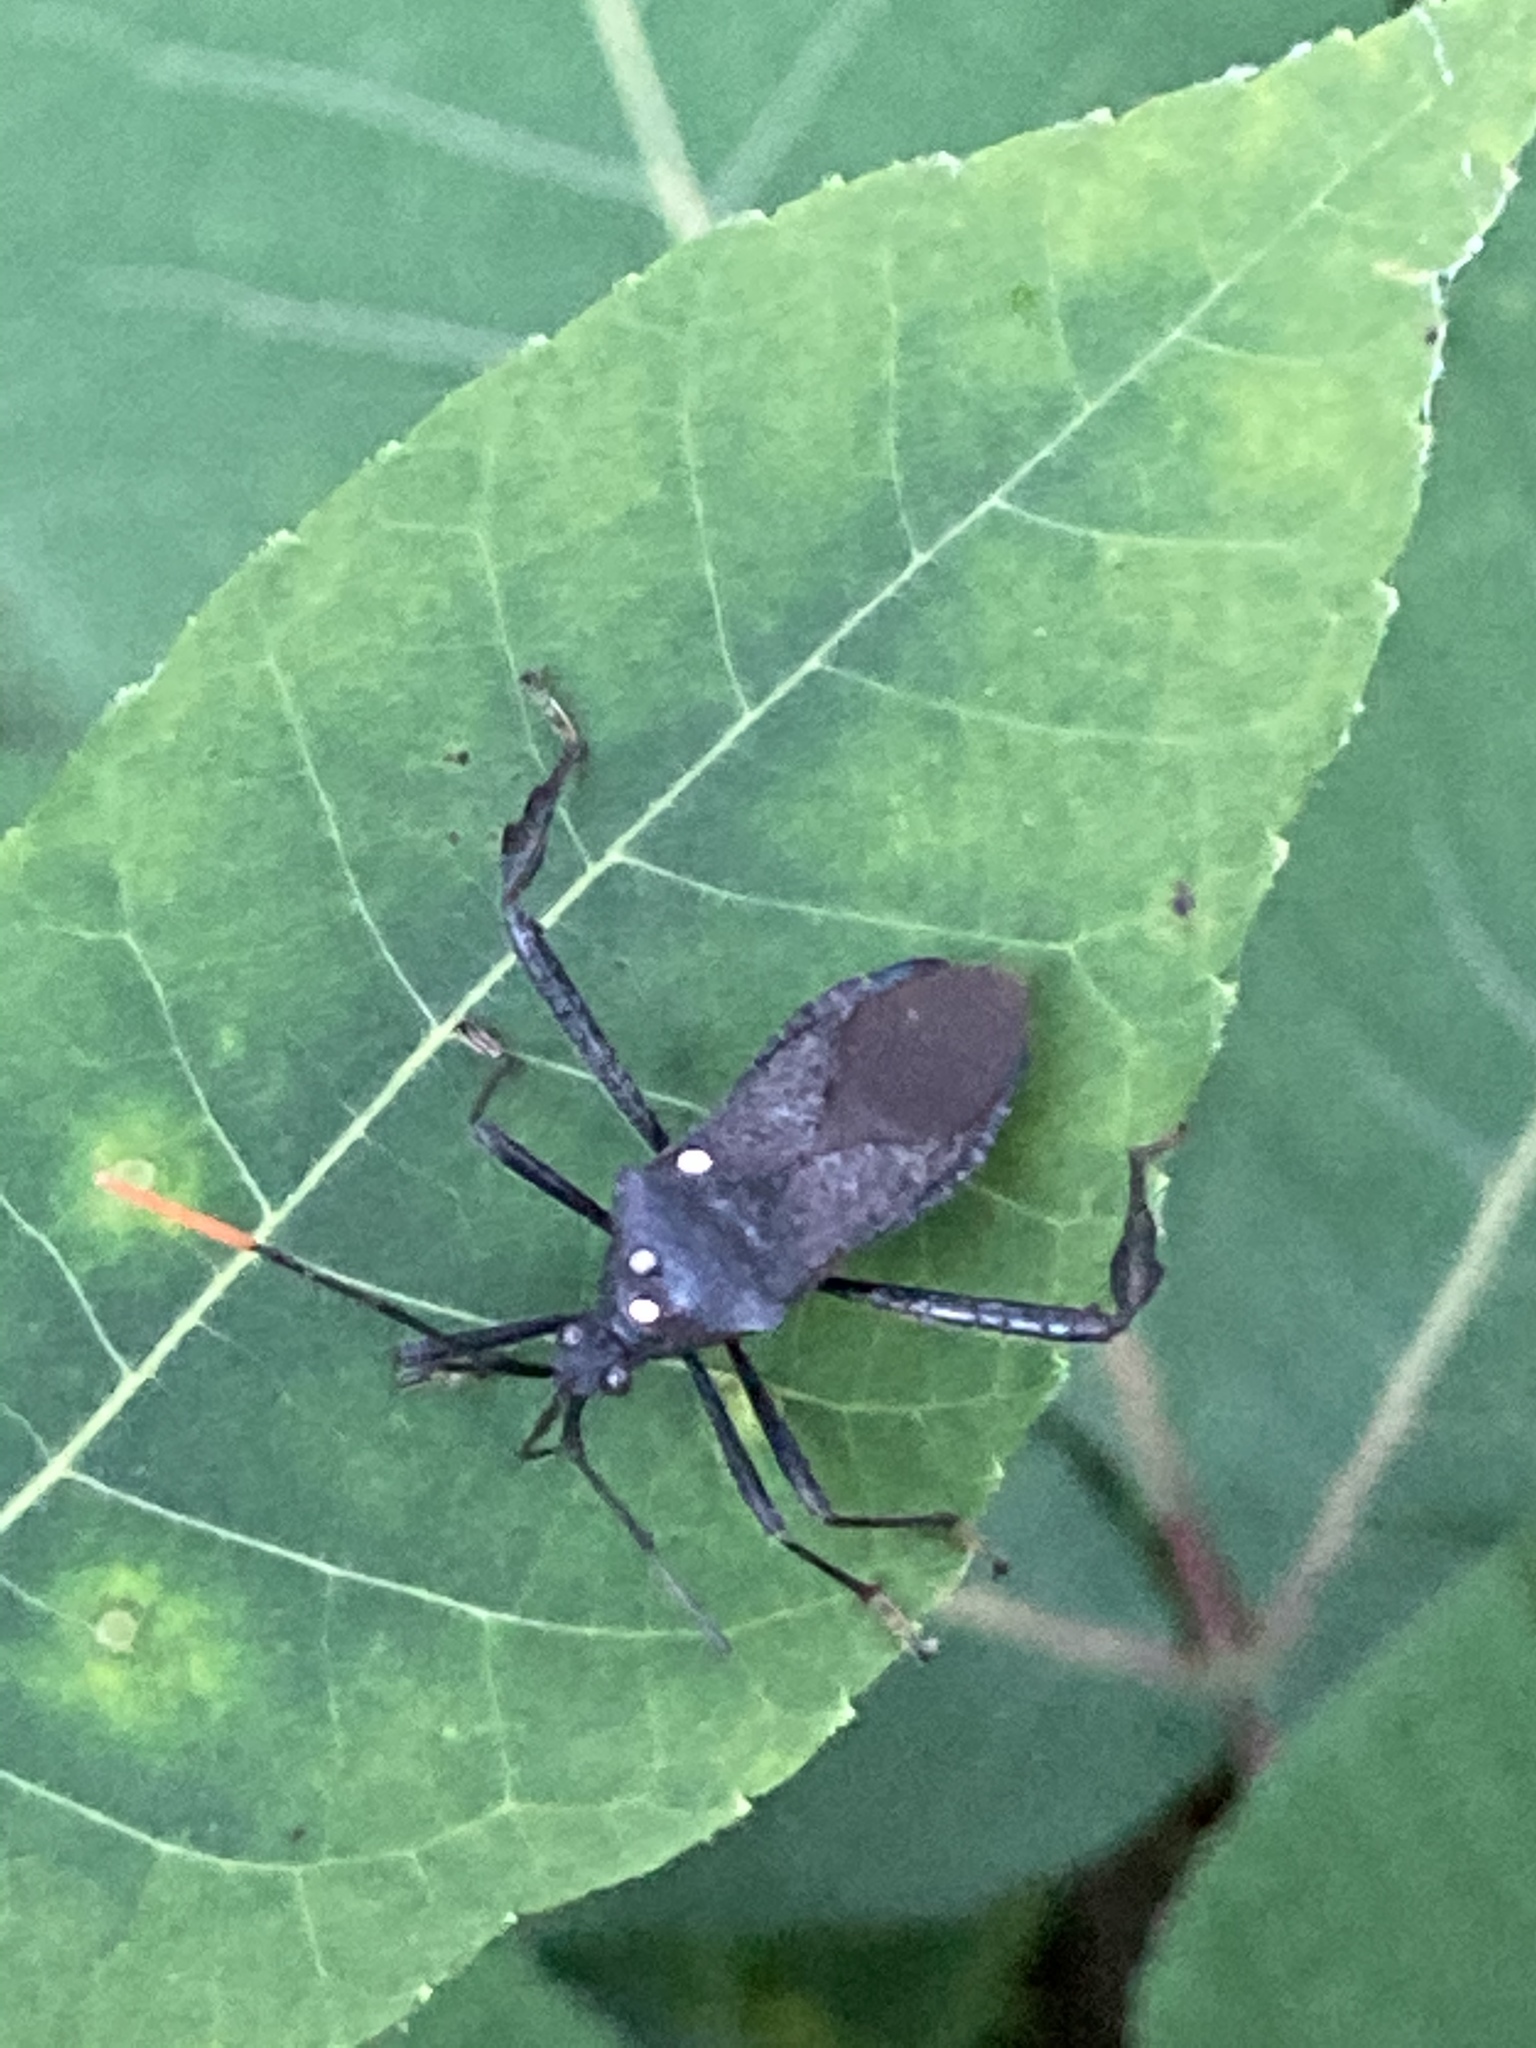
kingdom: Animalia
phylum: Arthropoda
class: Insecta
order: Hemiptera
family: Coreidae
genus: Acanthocephala
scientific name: Acanthocephala terminalis
